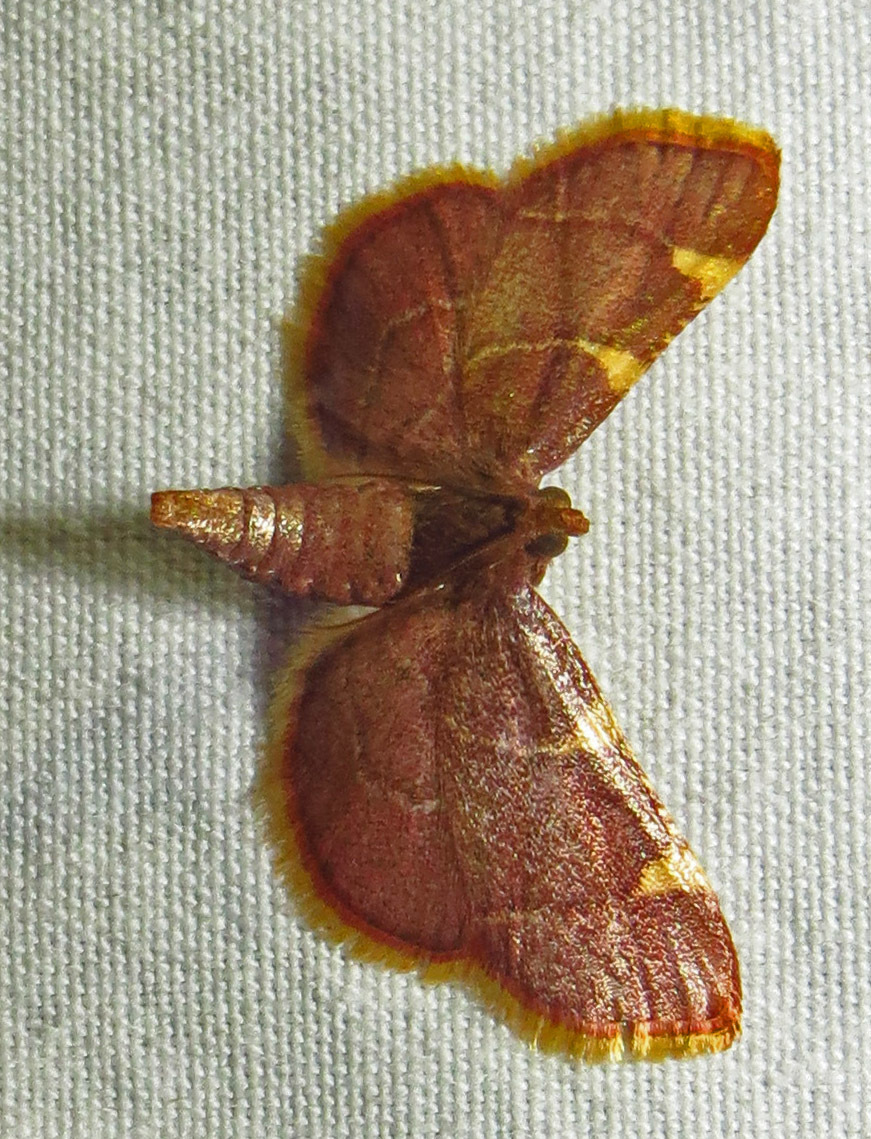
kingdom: Animalia
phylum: Arthropoda
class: Insecta
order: Lepidoptera
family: Pyralidae
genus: Hypsopygia
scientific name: Hypsopygia olinalis
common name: Yellow-fringed dolichomia moth
